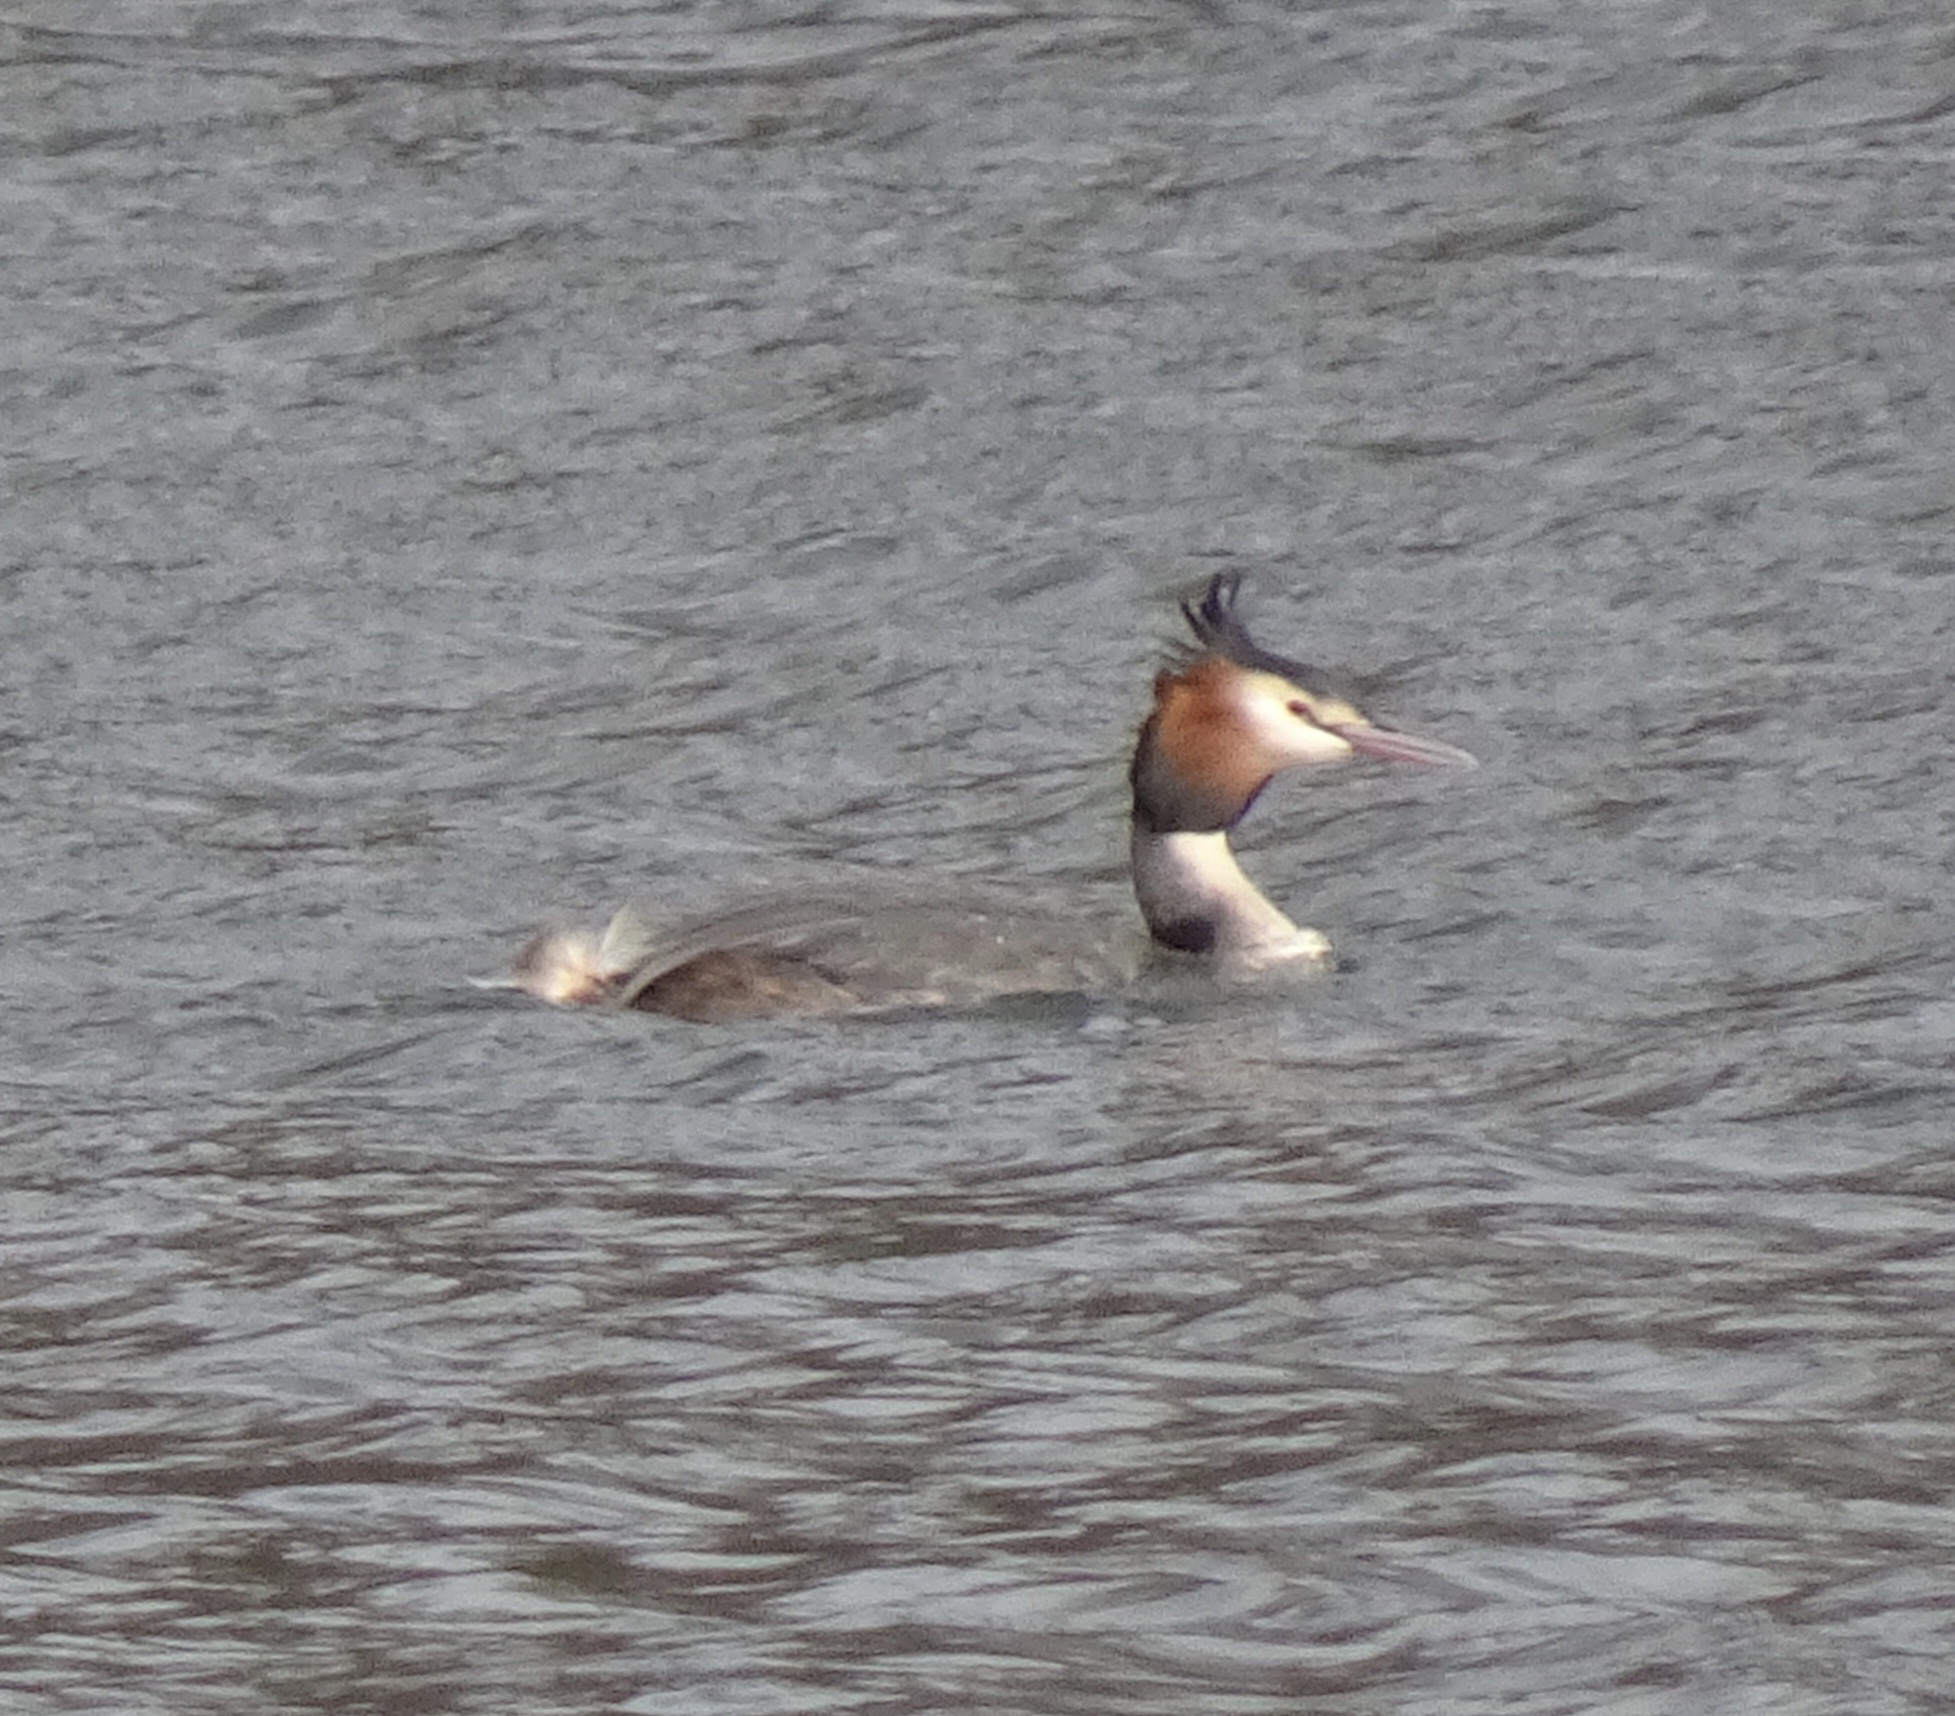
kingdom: Animalia
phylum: Chordata
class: Aves
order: Podicipediformes
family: Podicipedidae
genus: Podiceps
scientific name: Podiceps cristatus
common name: Great crested grebe
